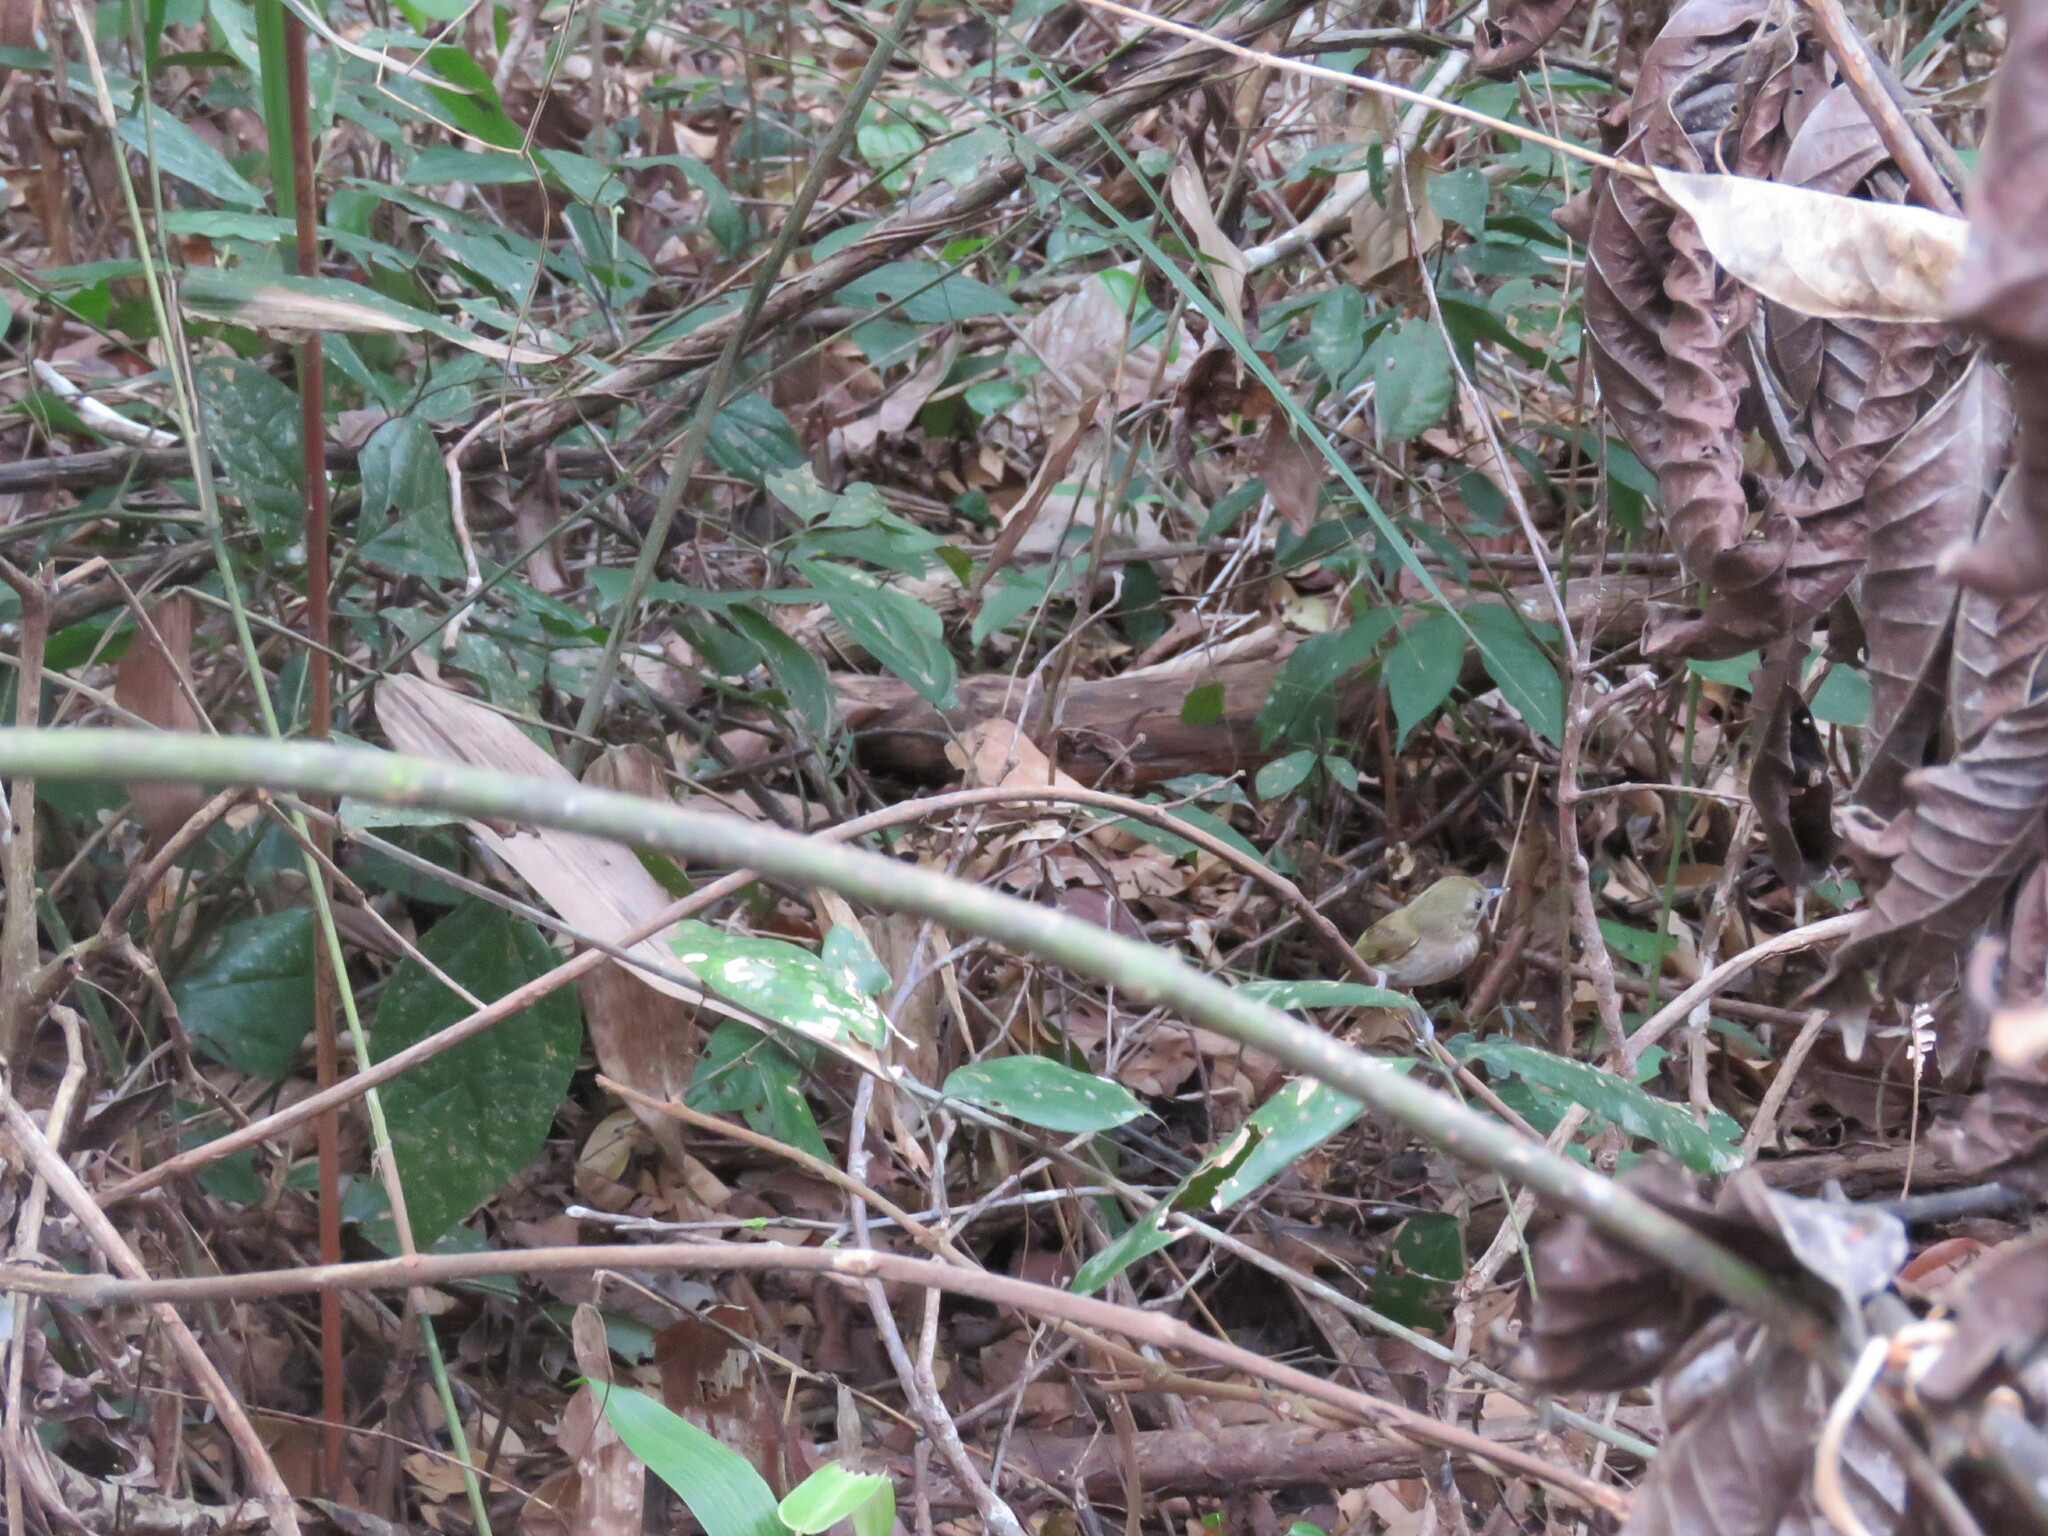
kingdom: Animalia
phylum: Chordata
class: Aves
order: Passeriformes
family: Tyrannidae
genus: Hemitriccus
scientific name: Hemitriccus flammulatus
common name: Flammulated bamboo tyrant
